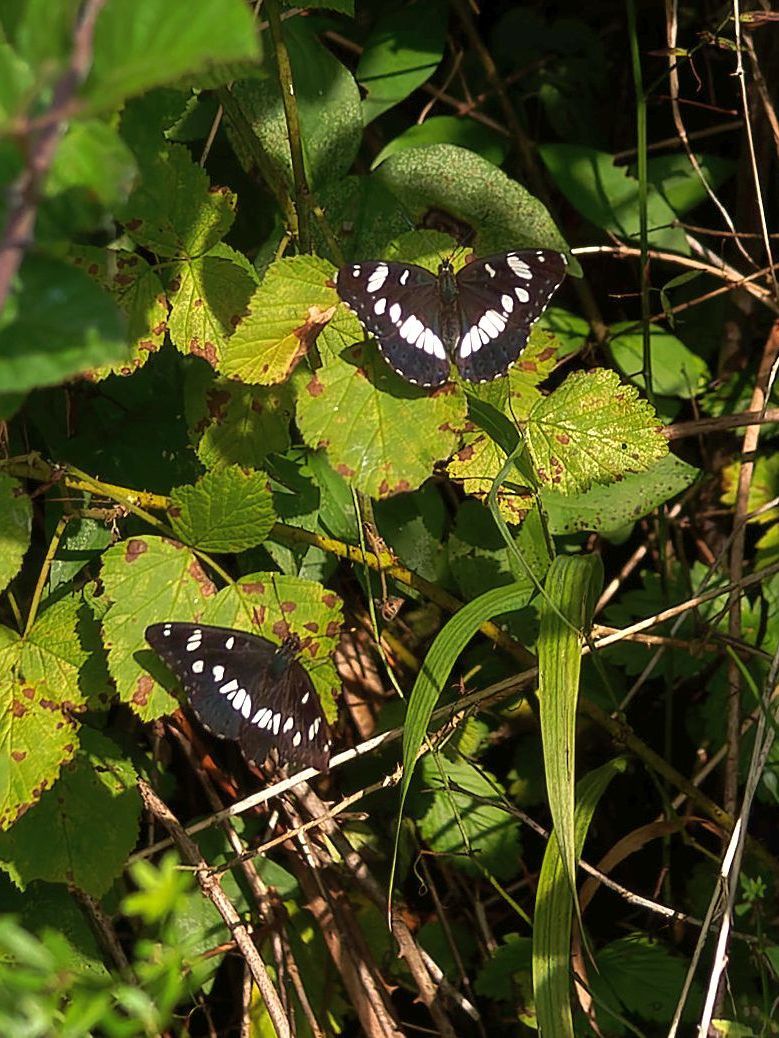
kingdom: Animalia
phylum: Arthropoda
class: Insecta
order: Lepidoptera
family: Nymphalidae
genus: Limenitis
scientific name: Limenitis reducta
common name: Southern white admiral
